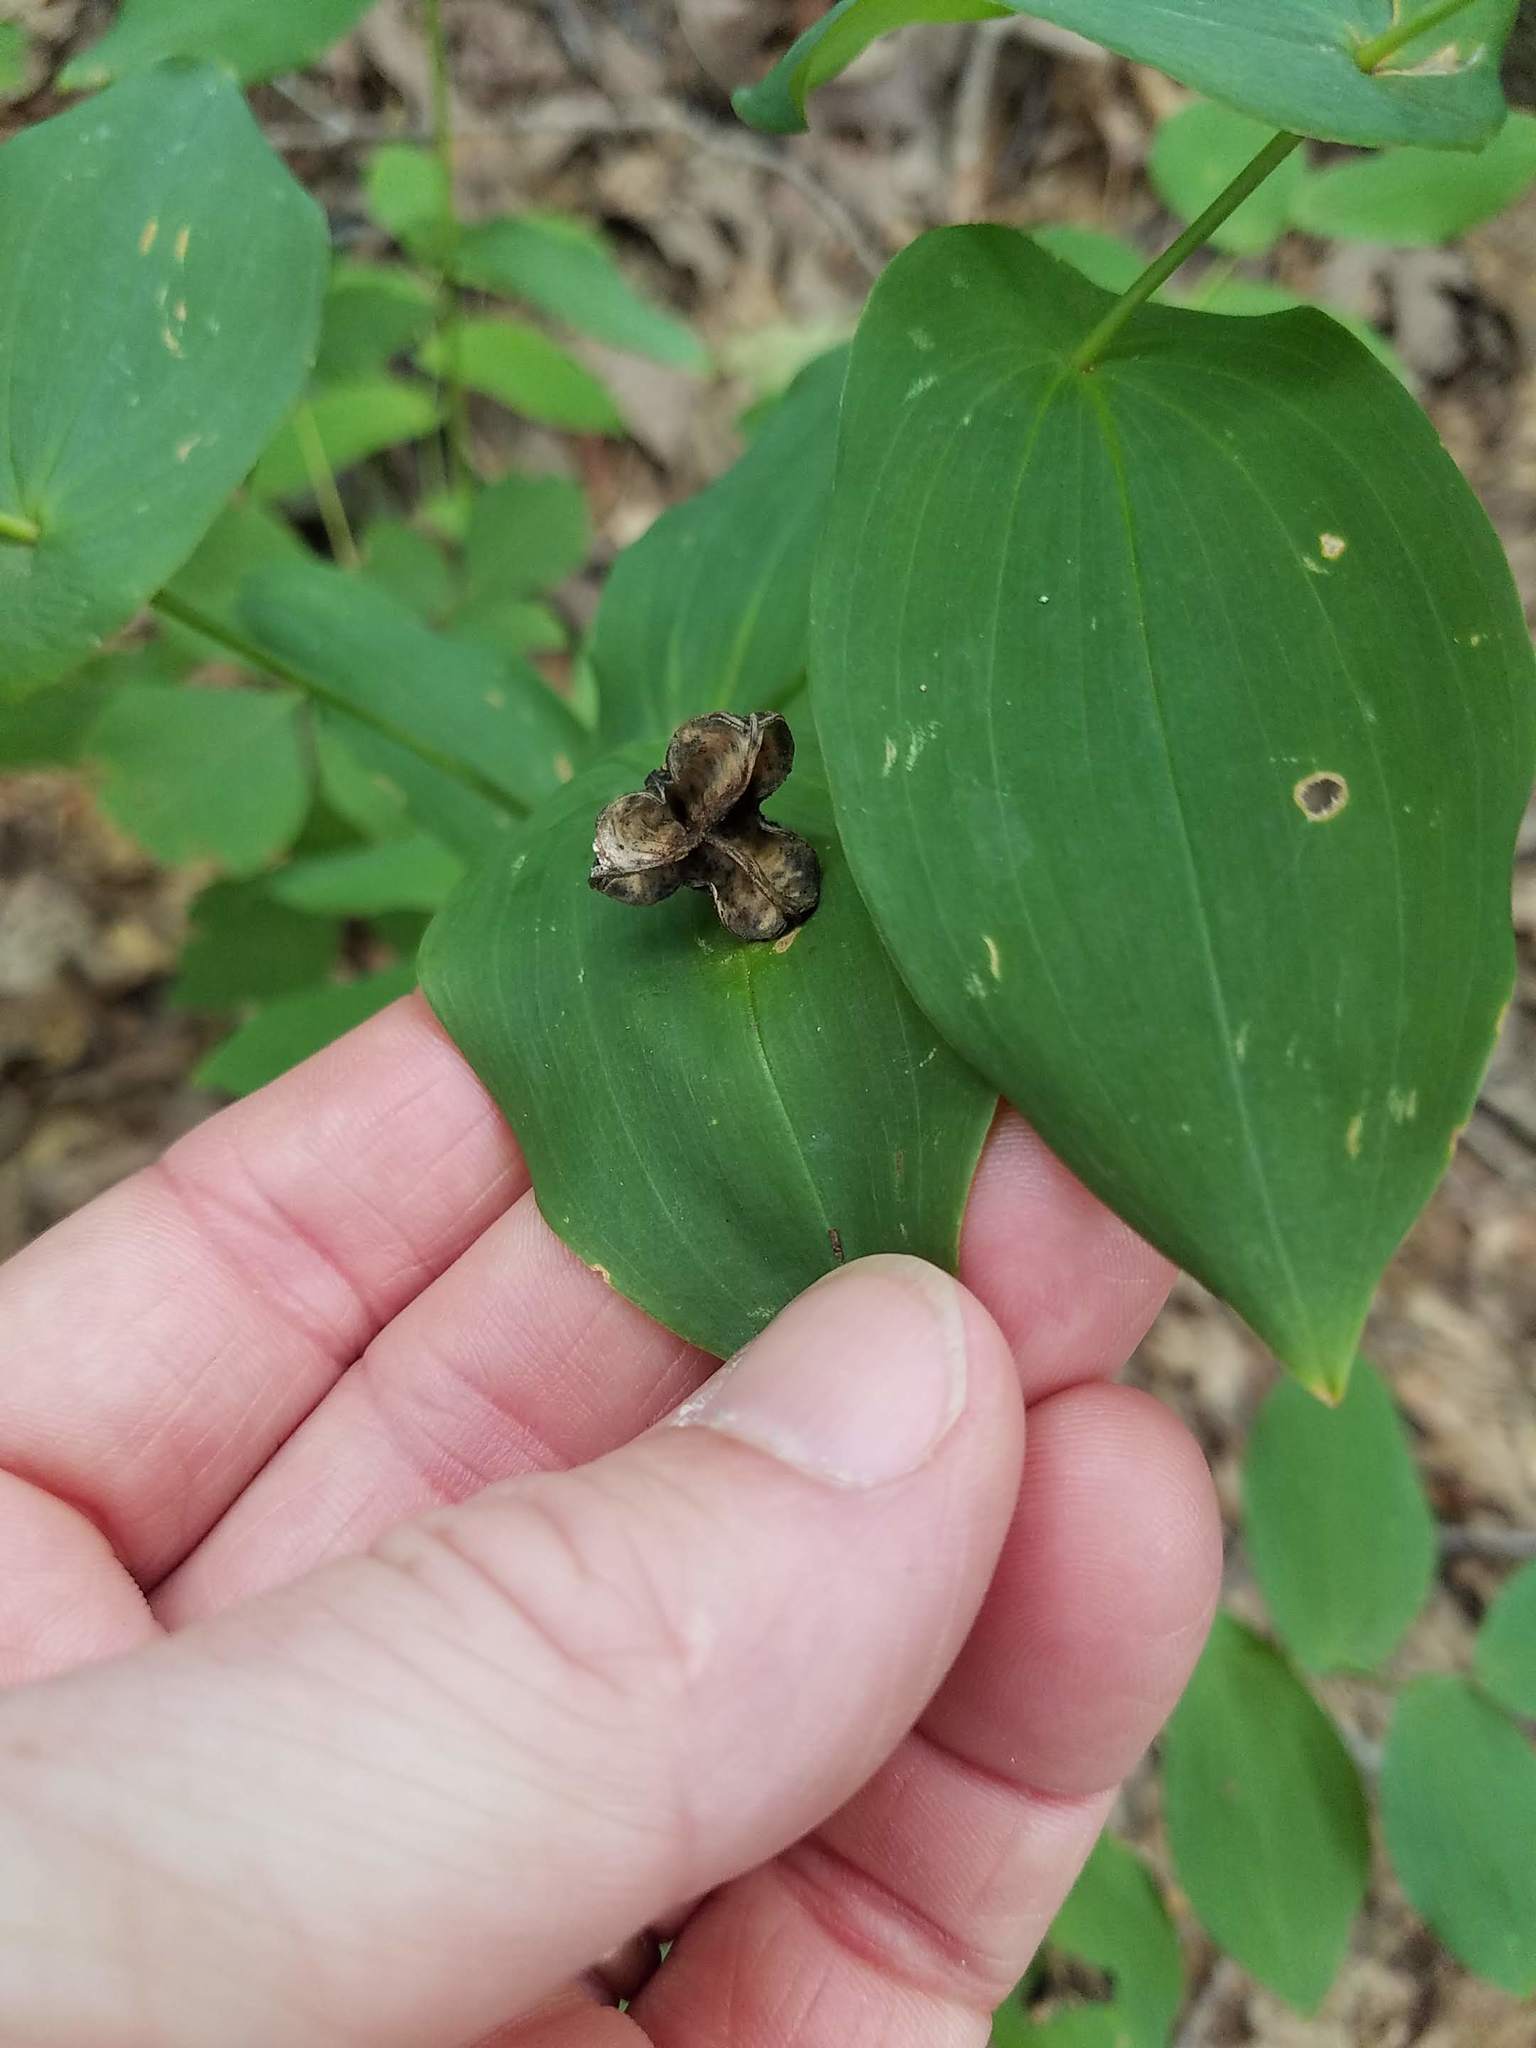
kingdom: Plantae
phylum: Tracheophyta
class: Liliopsida
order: Liliales
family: Colchicaceae
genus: Uvularia
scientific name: Uvularia grandiflora
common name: Bellwort
